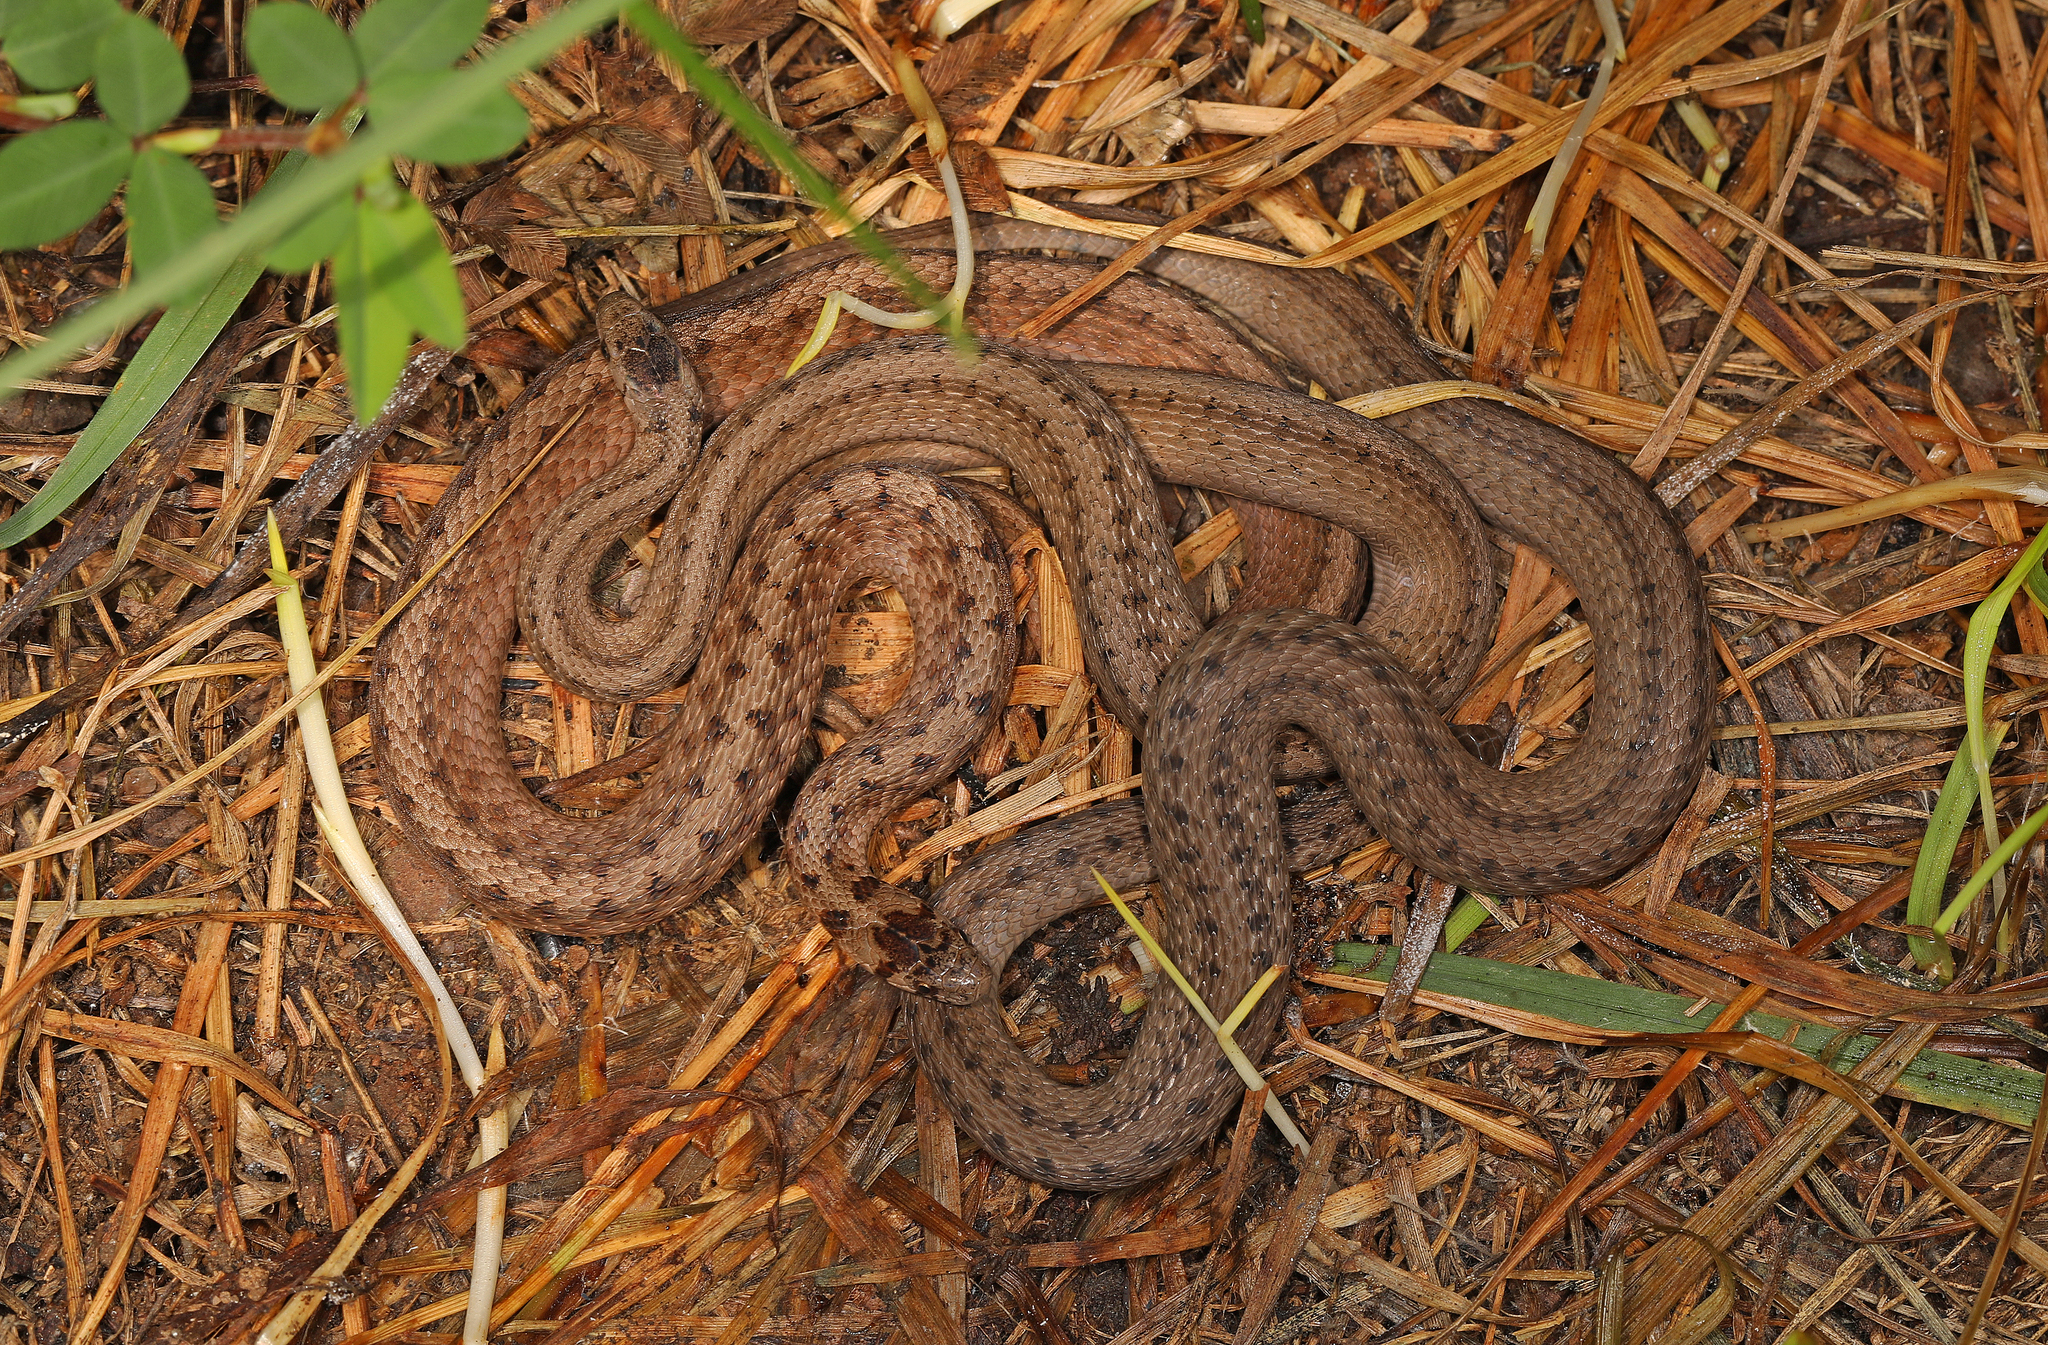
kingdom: Animalia
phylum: Chordata
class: Squamata
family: Colubridae
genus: Storeria
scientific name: Storeria dekayi
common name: (dekay’s) brown snake
